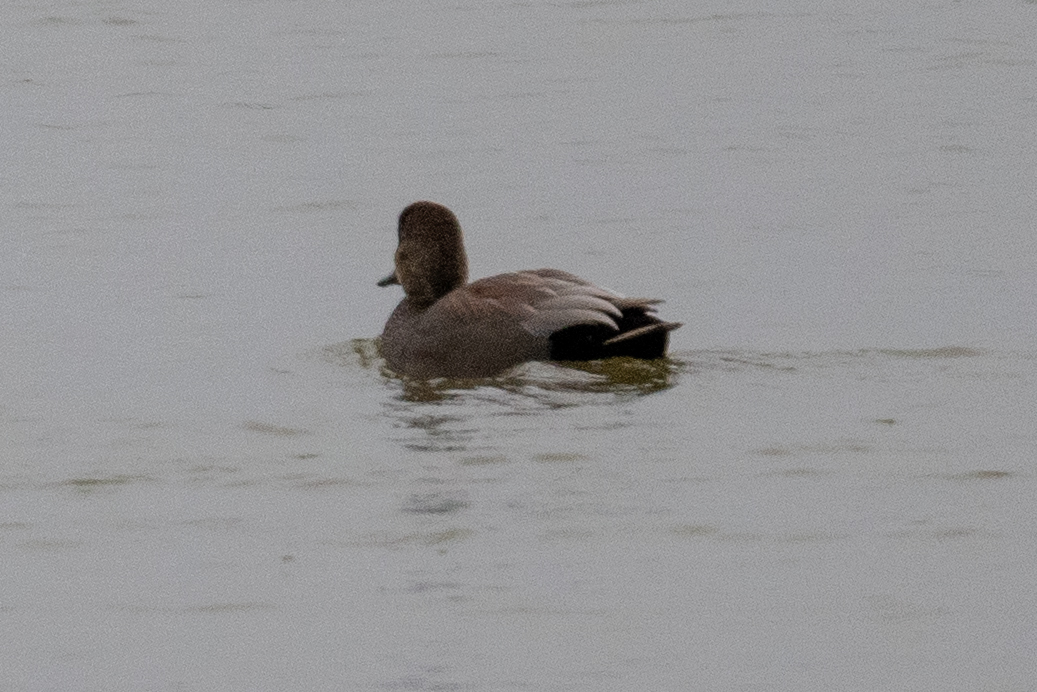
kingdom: Animalia
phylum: Chordata
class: Aves
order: Anseriformes
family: Anatidae
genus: Mareca
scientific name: Mareca strepera
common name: Gadwall
